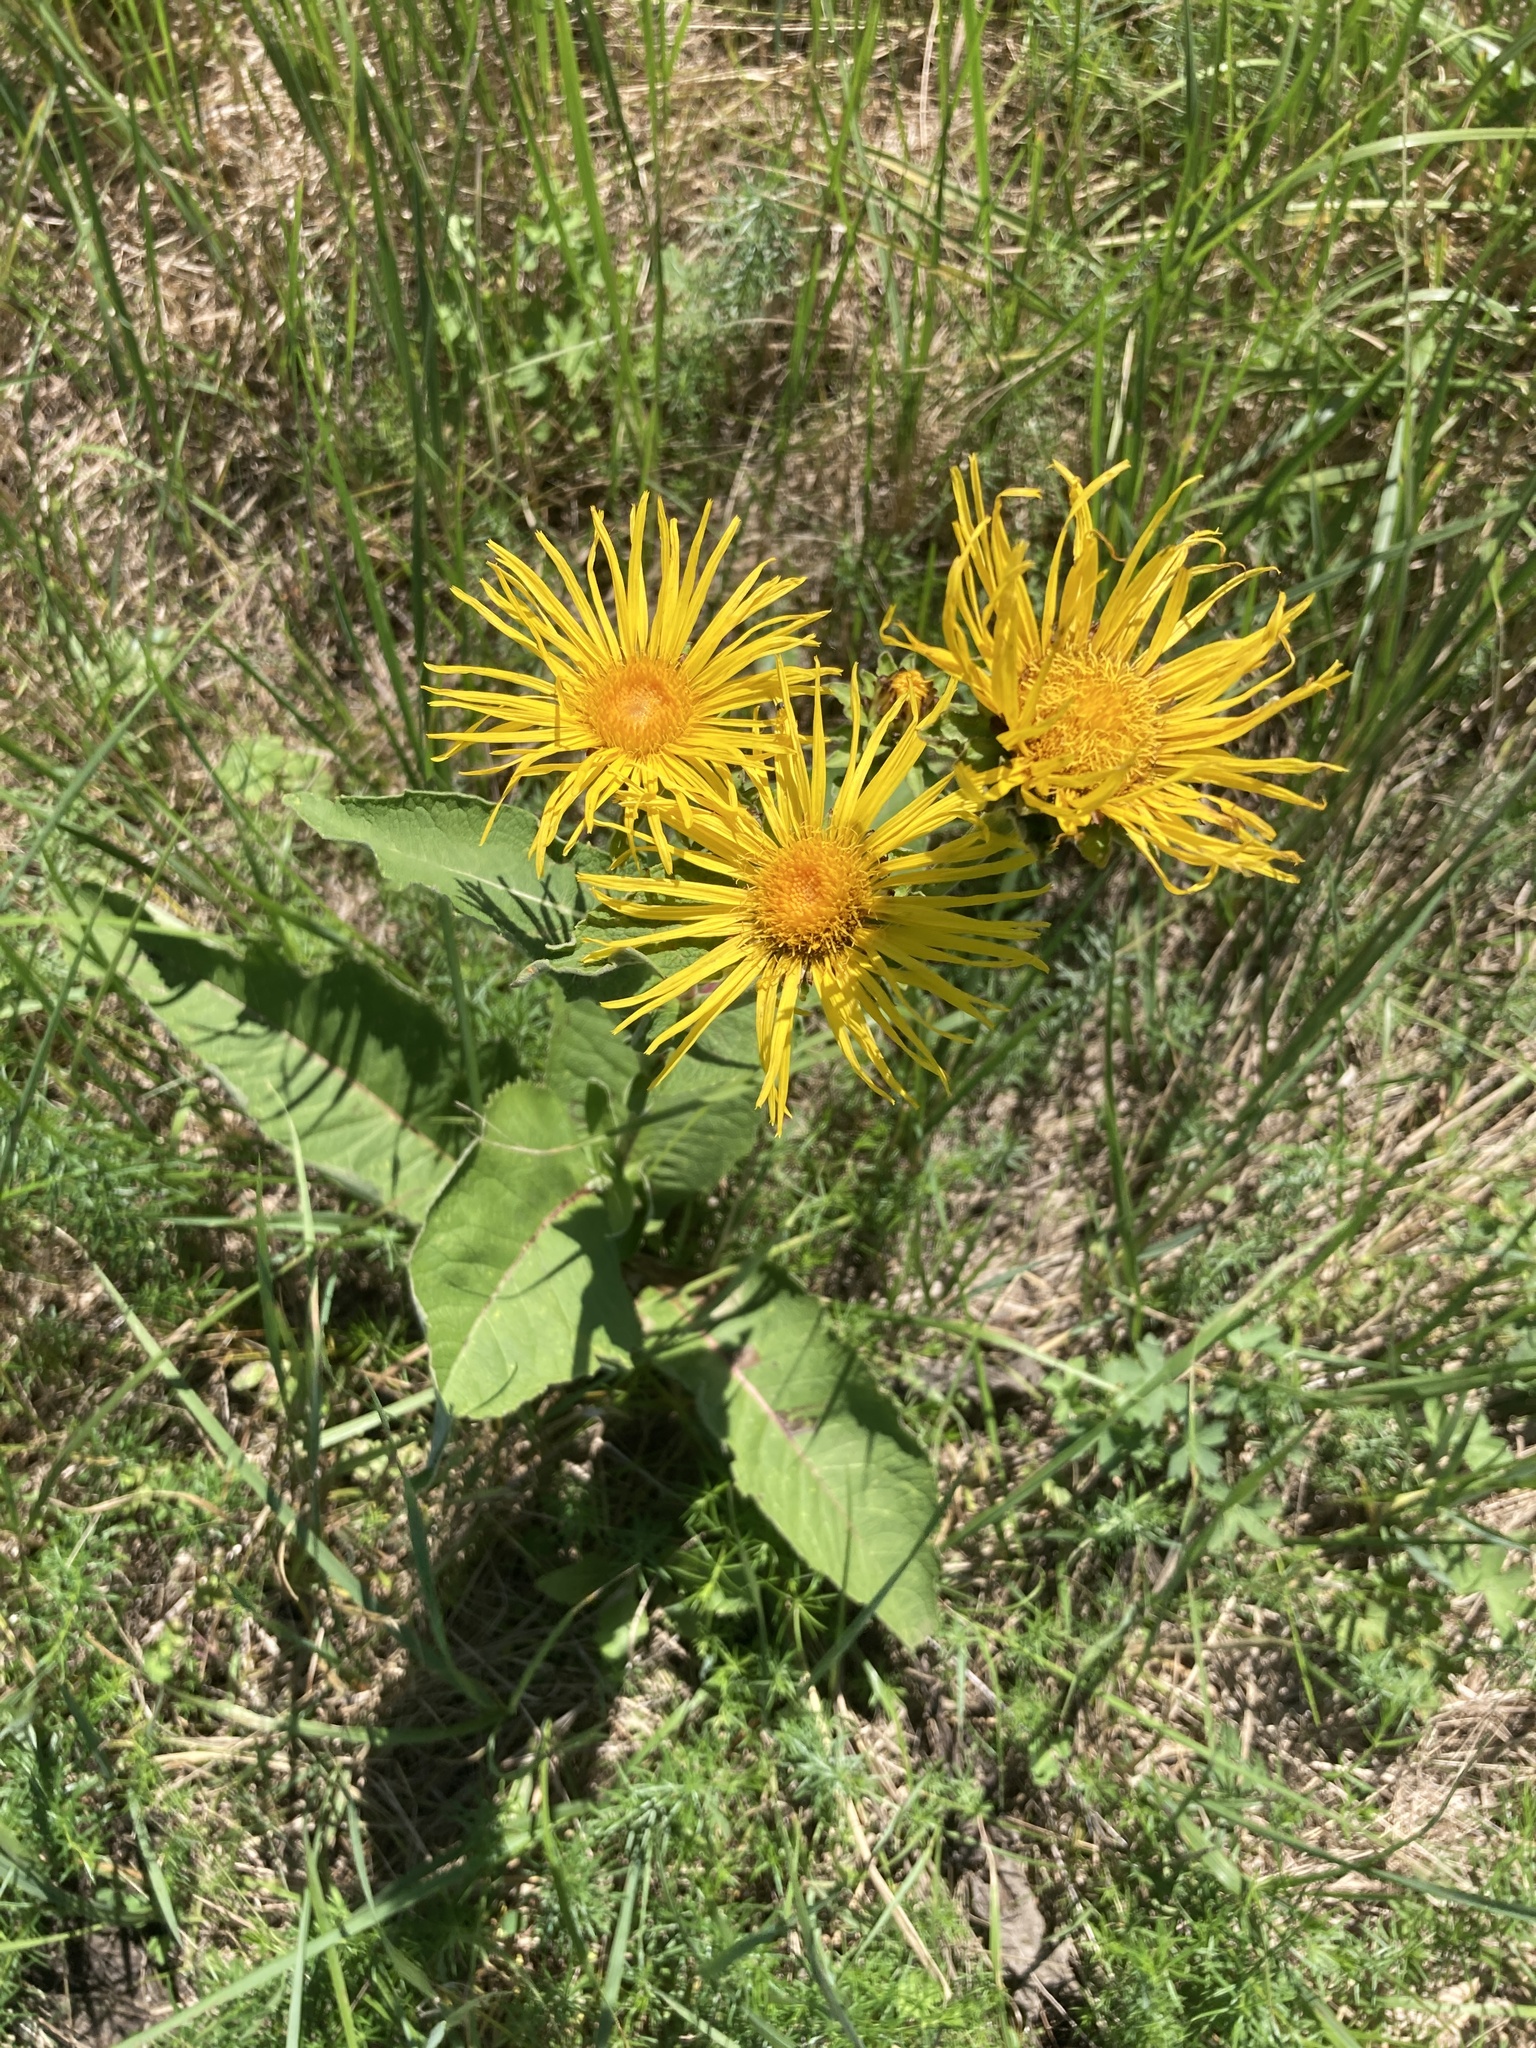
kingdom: Plantae
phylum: Tracheophyta
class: Magnoliopsida
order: Asterales
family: Asteraceae
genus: Inula
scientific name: Inula helenium
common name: Elecampane
